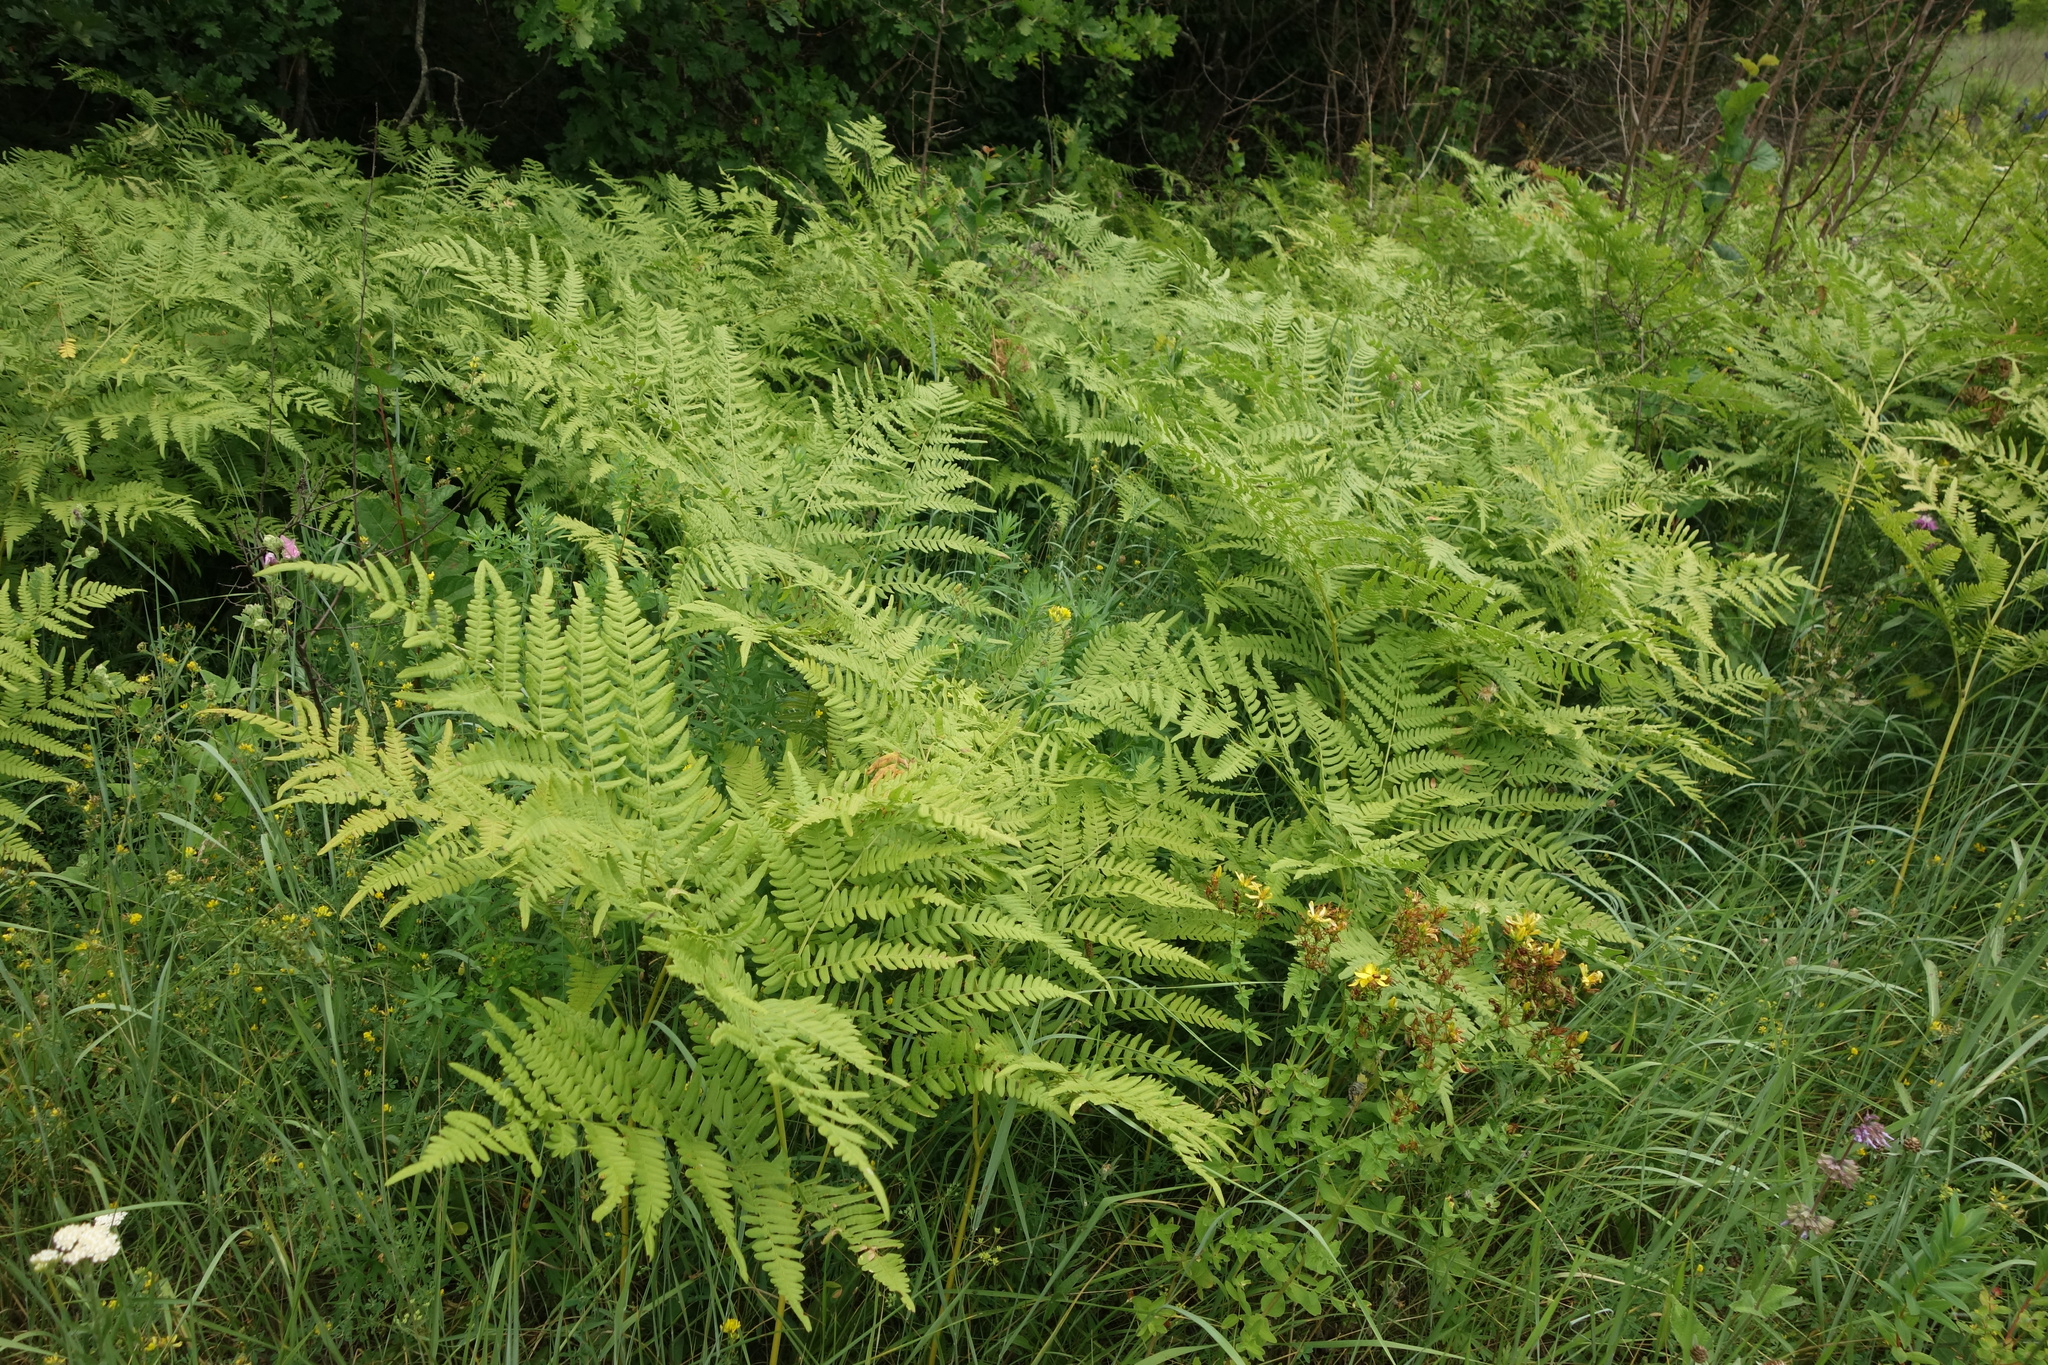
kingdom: Plantae
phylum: Tracheophyta
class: Polypodiopsida
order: Polypodiales
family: Dennstaedtiaceae
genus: Pteridium
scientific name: Pteridium aquilinum
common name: Bracken
